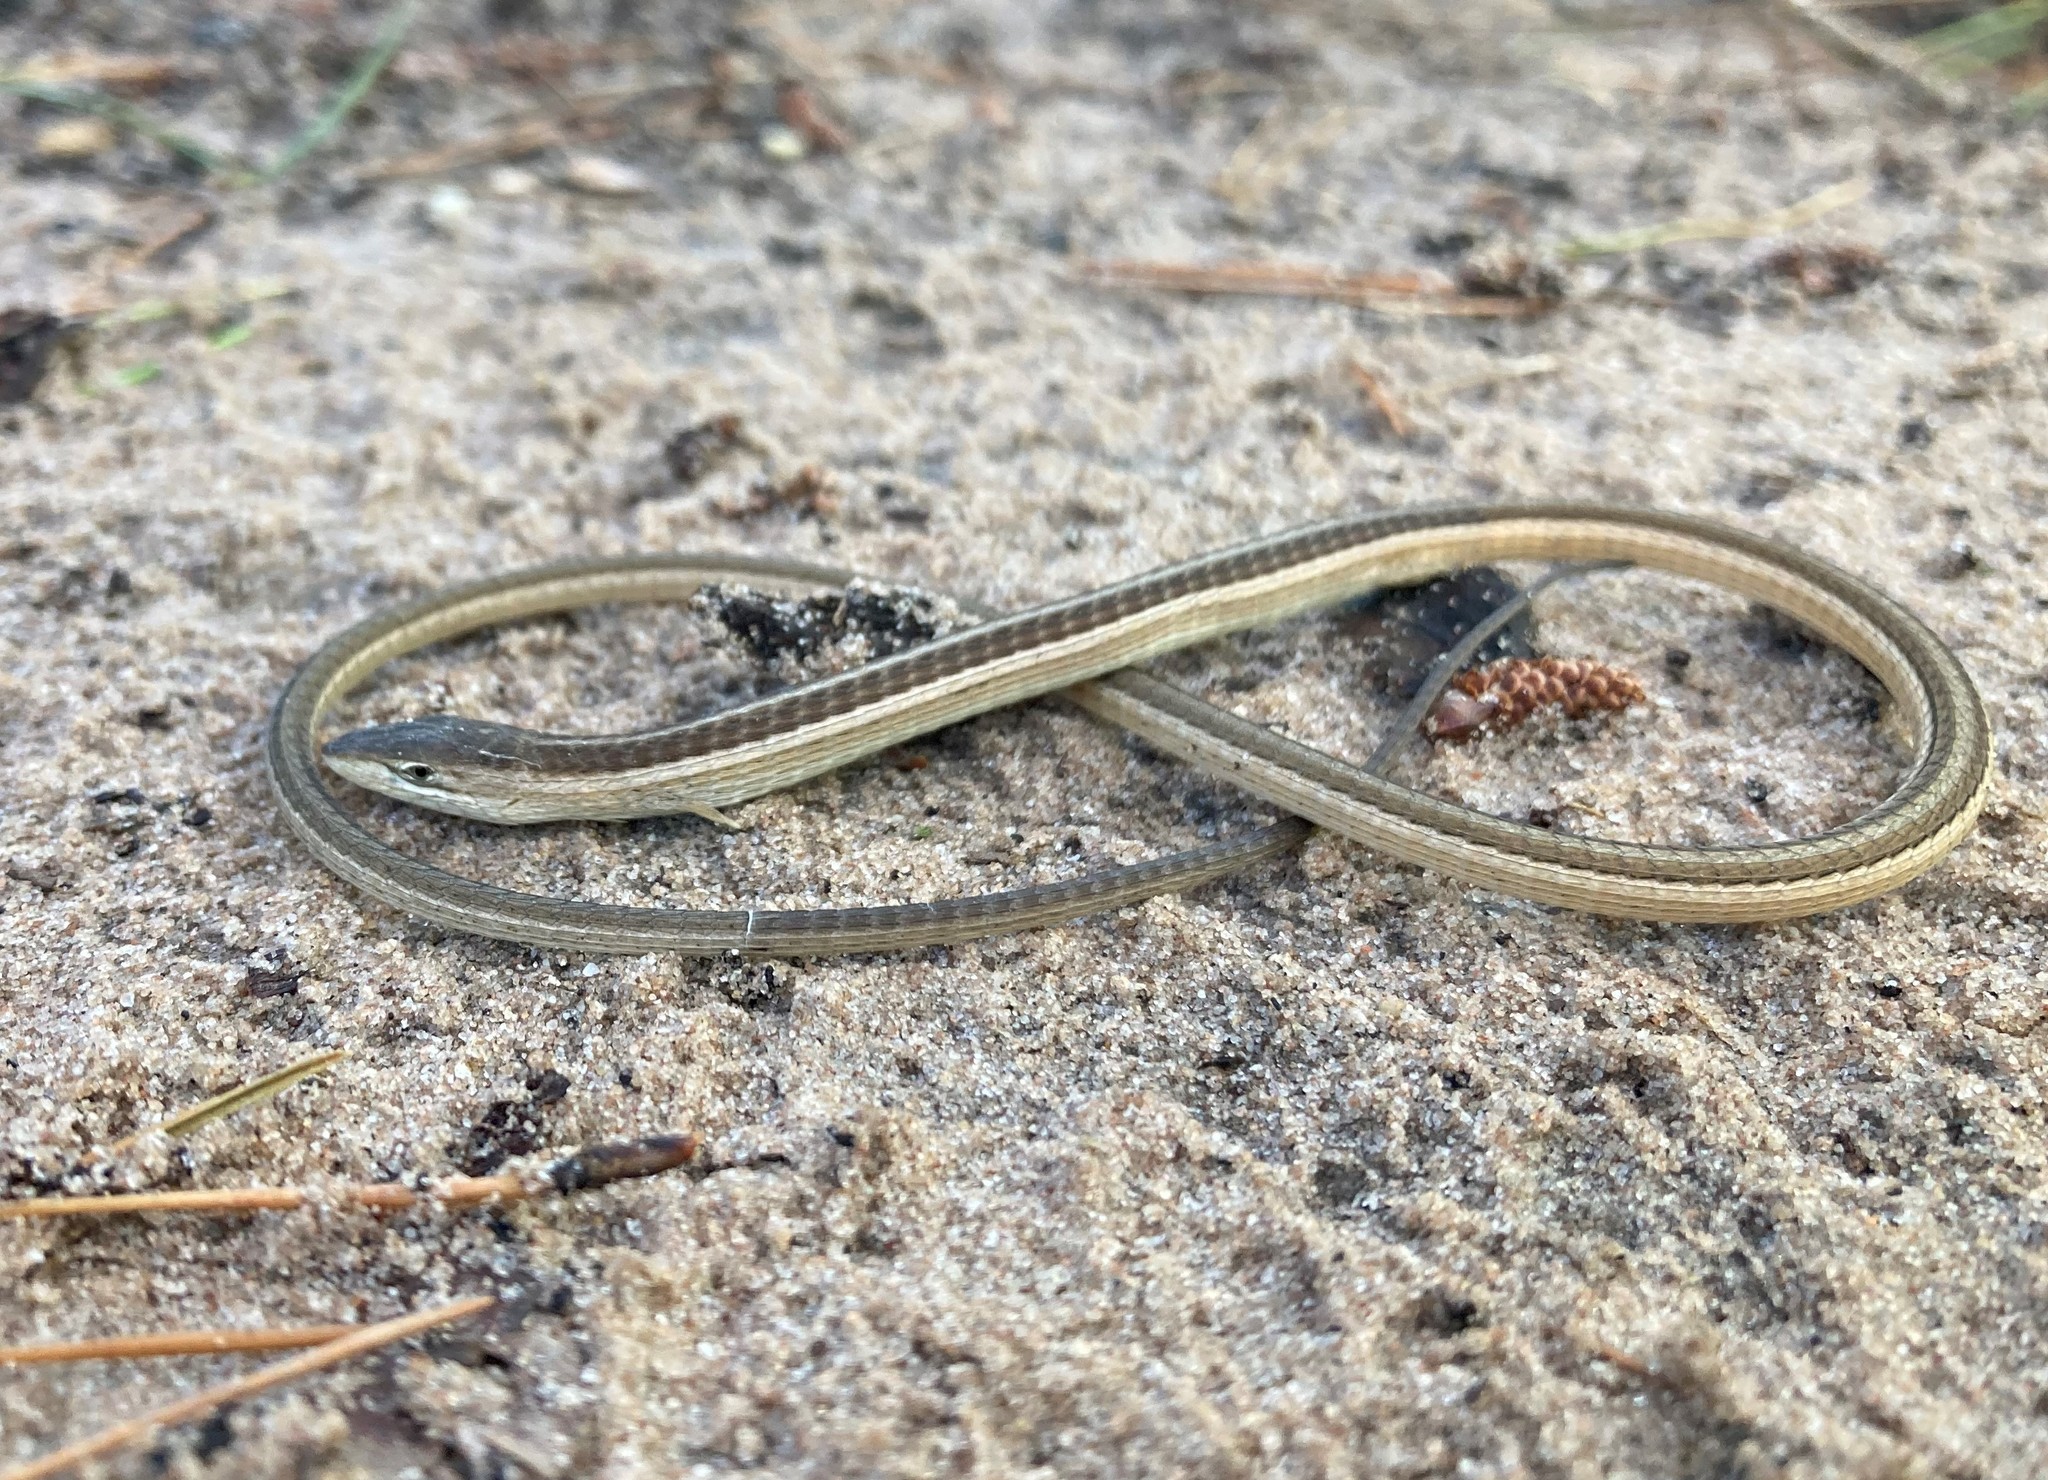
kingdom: Animalia
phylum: Chordata
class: Squamata
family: Cordylidae
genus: Chamaesaura
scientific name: Chamaesaura anguina
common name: Cape snake lizard
